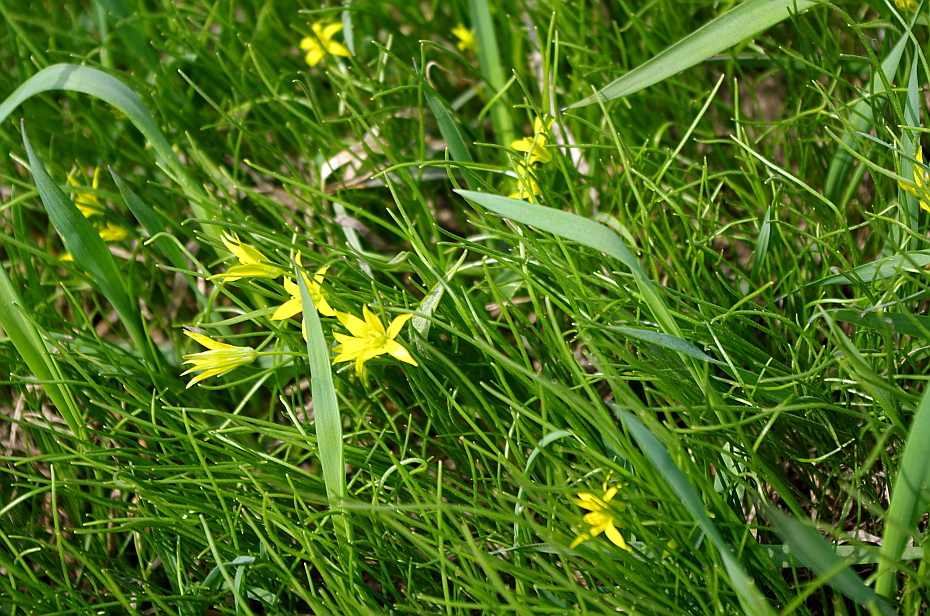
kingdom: Plantae
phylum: Tracheophyta
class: Liliopsida
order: Liliales
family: Liliaceae
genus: Gagea
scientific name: Gagea minima
